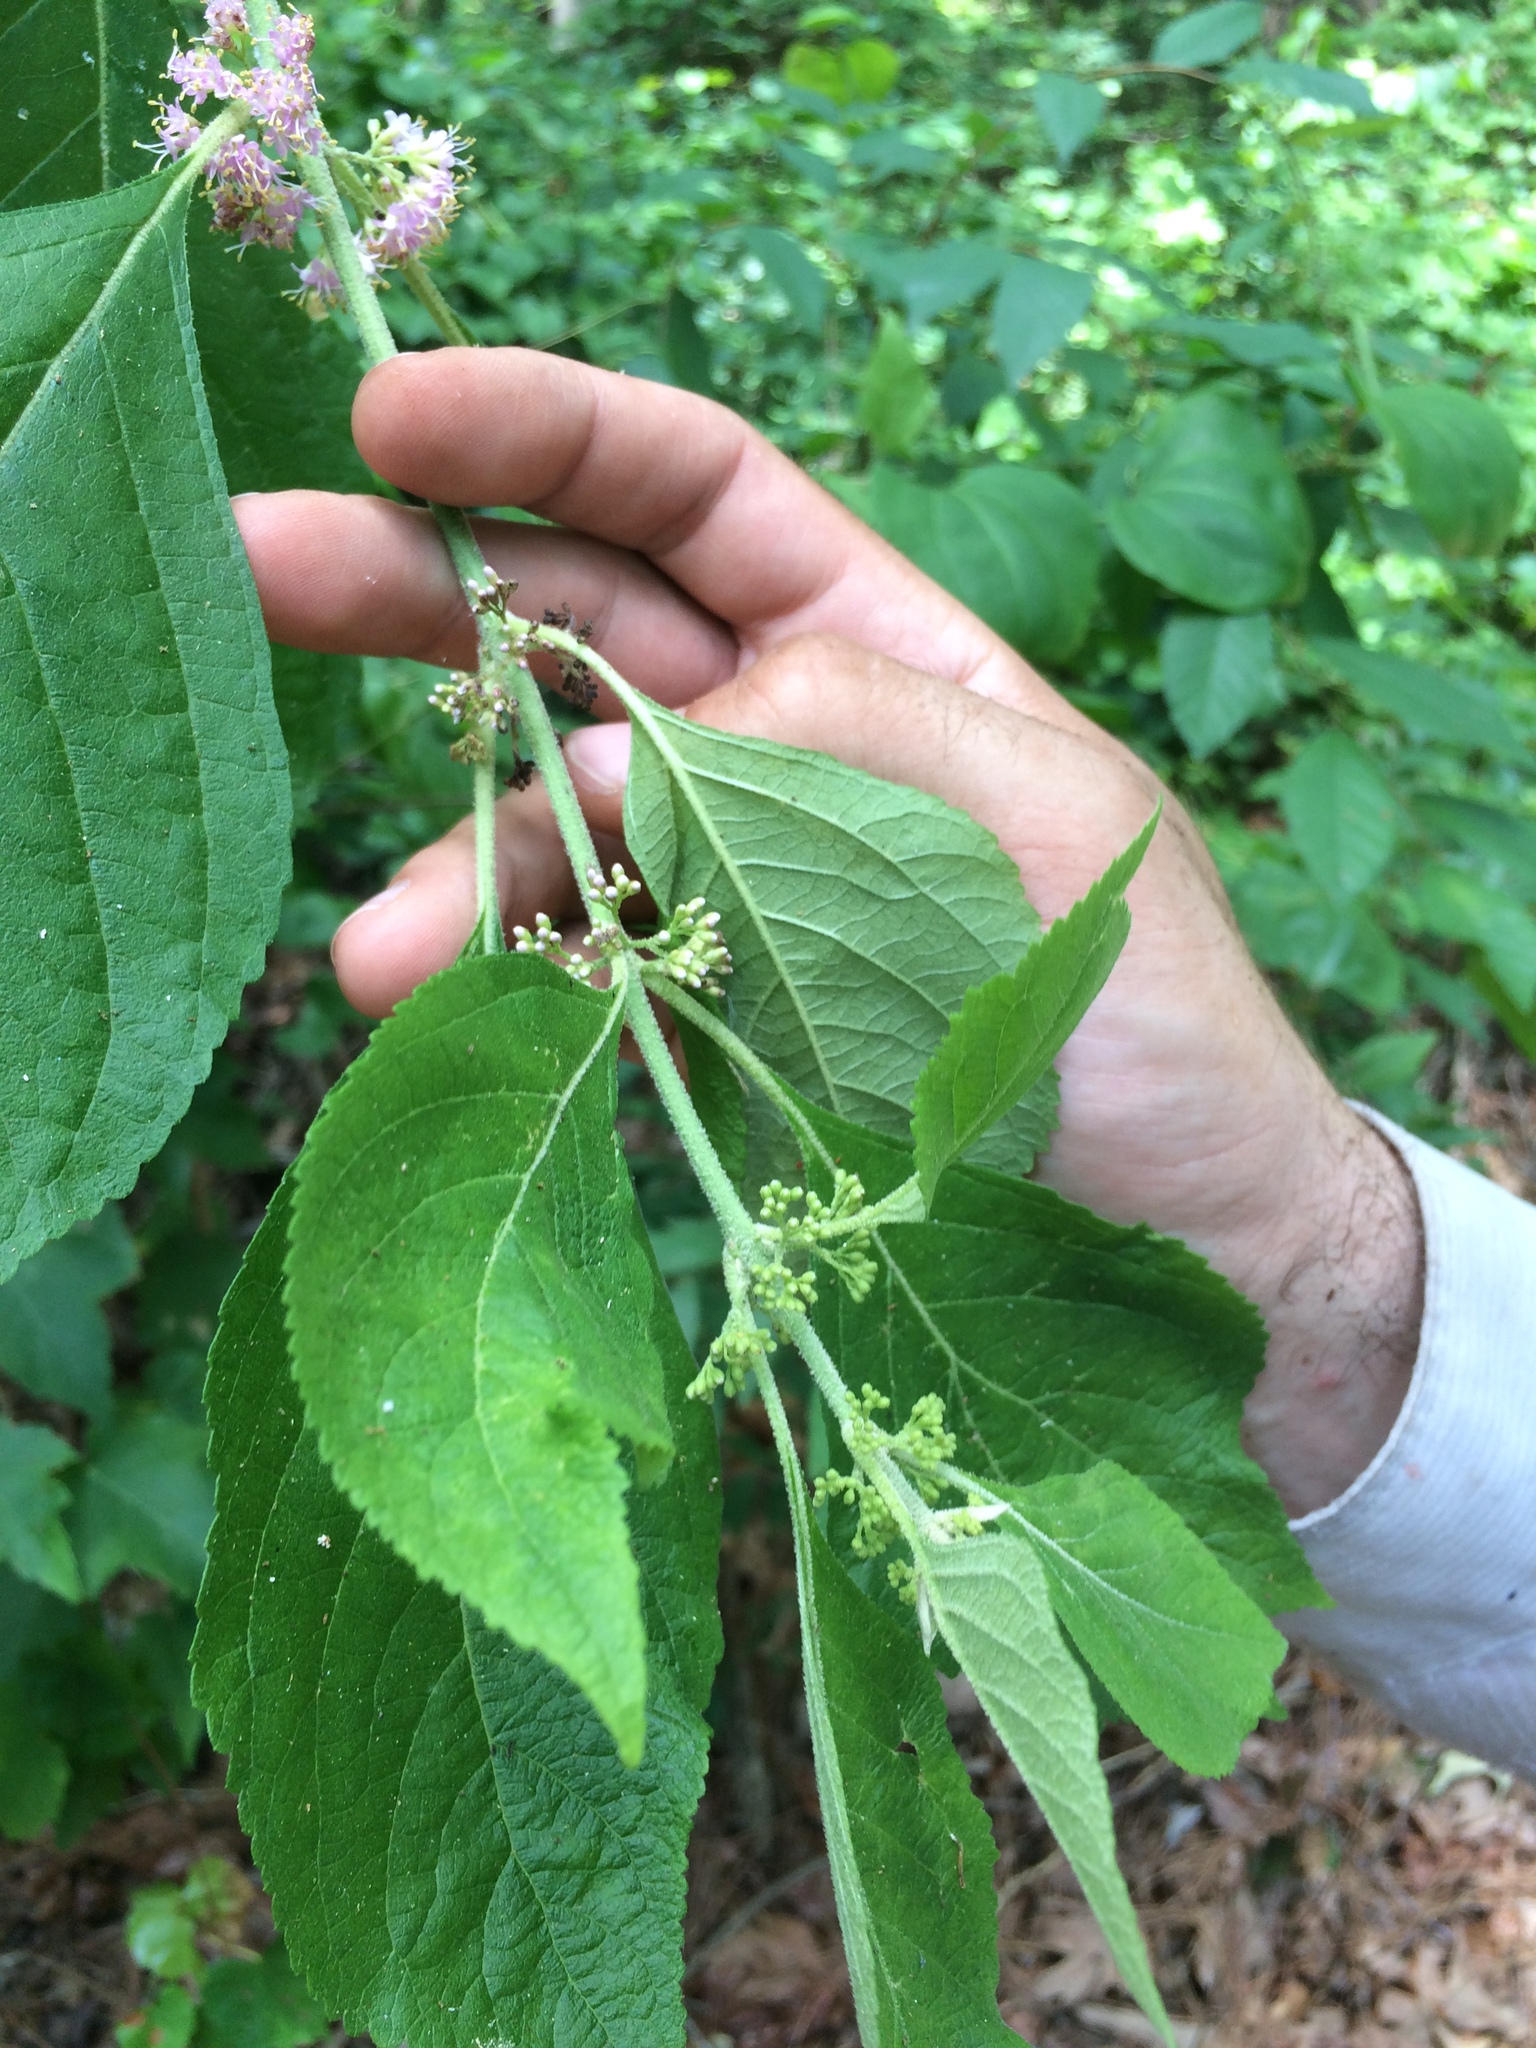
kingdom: Plantae
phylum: Tracheophyta
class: Magnoliopsida
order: Lamiales
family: Lamiaceae
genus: Callicarpa
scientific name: Callicarpa americana
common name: American beautyberry
